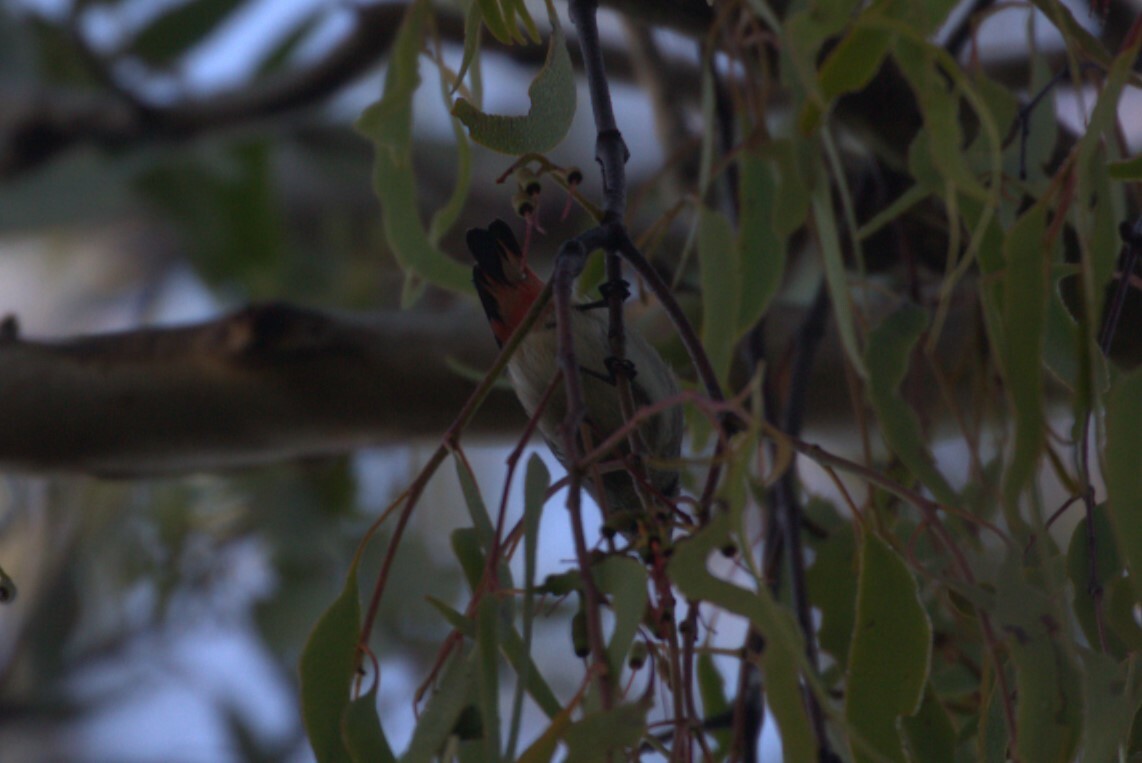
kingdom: Animalia
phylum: Chordata
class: Aves
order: Passeriformes
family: Dicaeidae
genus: Dicaeum
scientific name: Dicaeum hirundinaceum
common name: Mistletoebird
